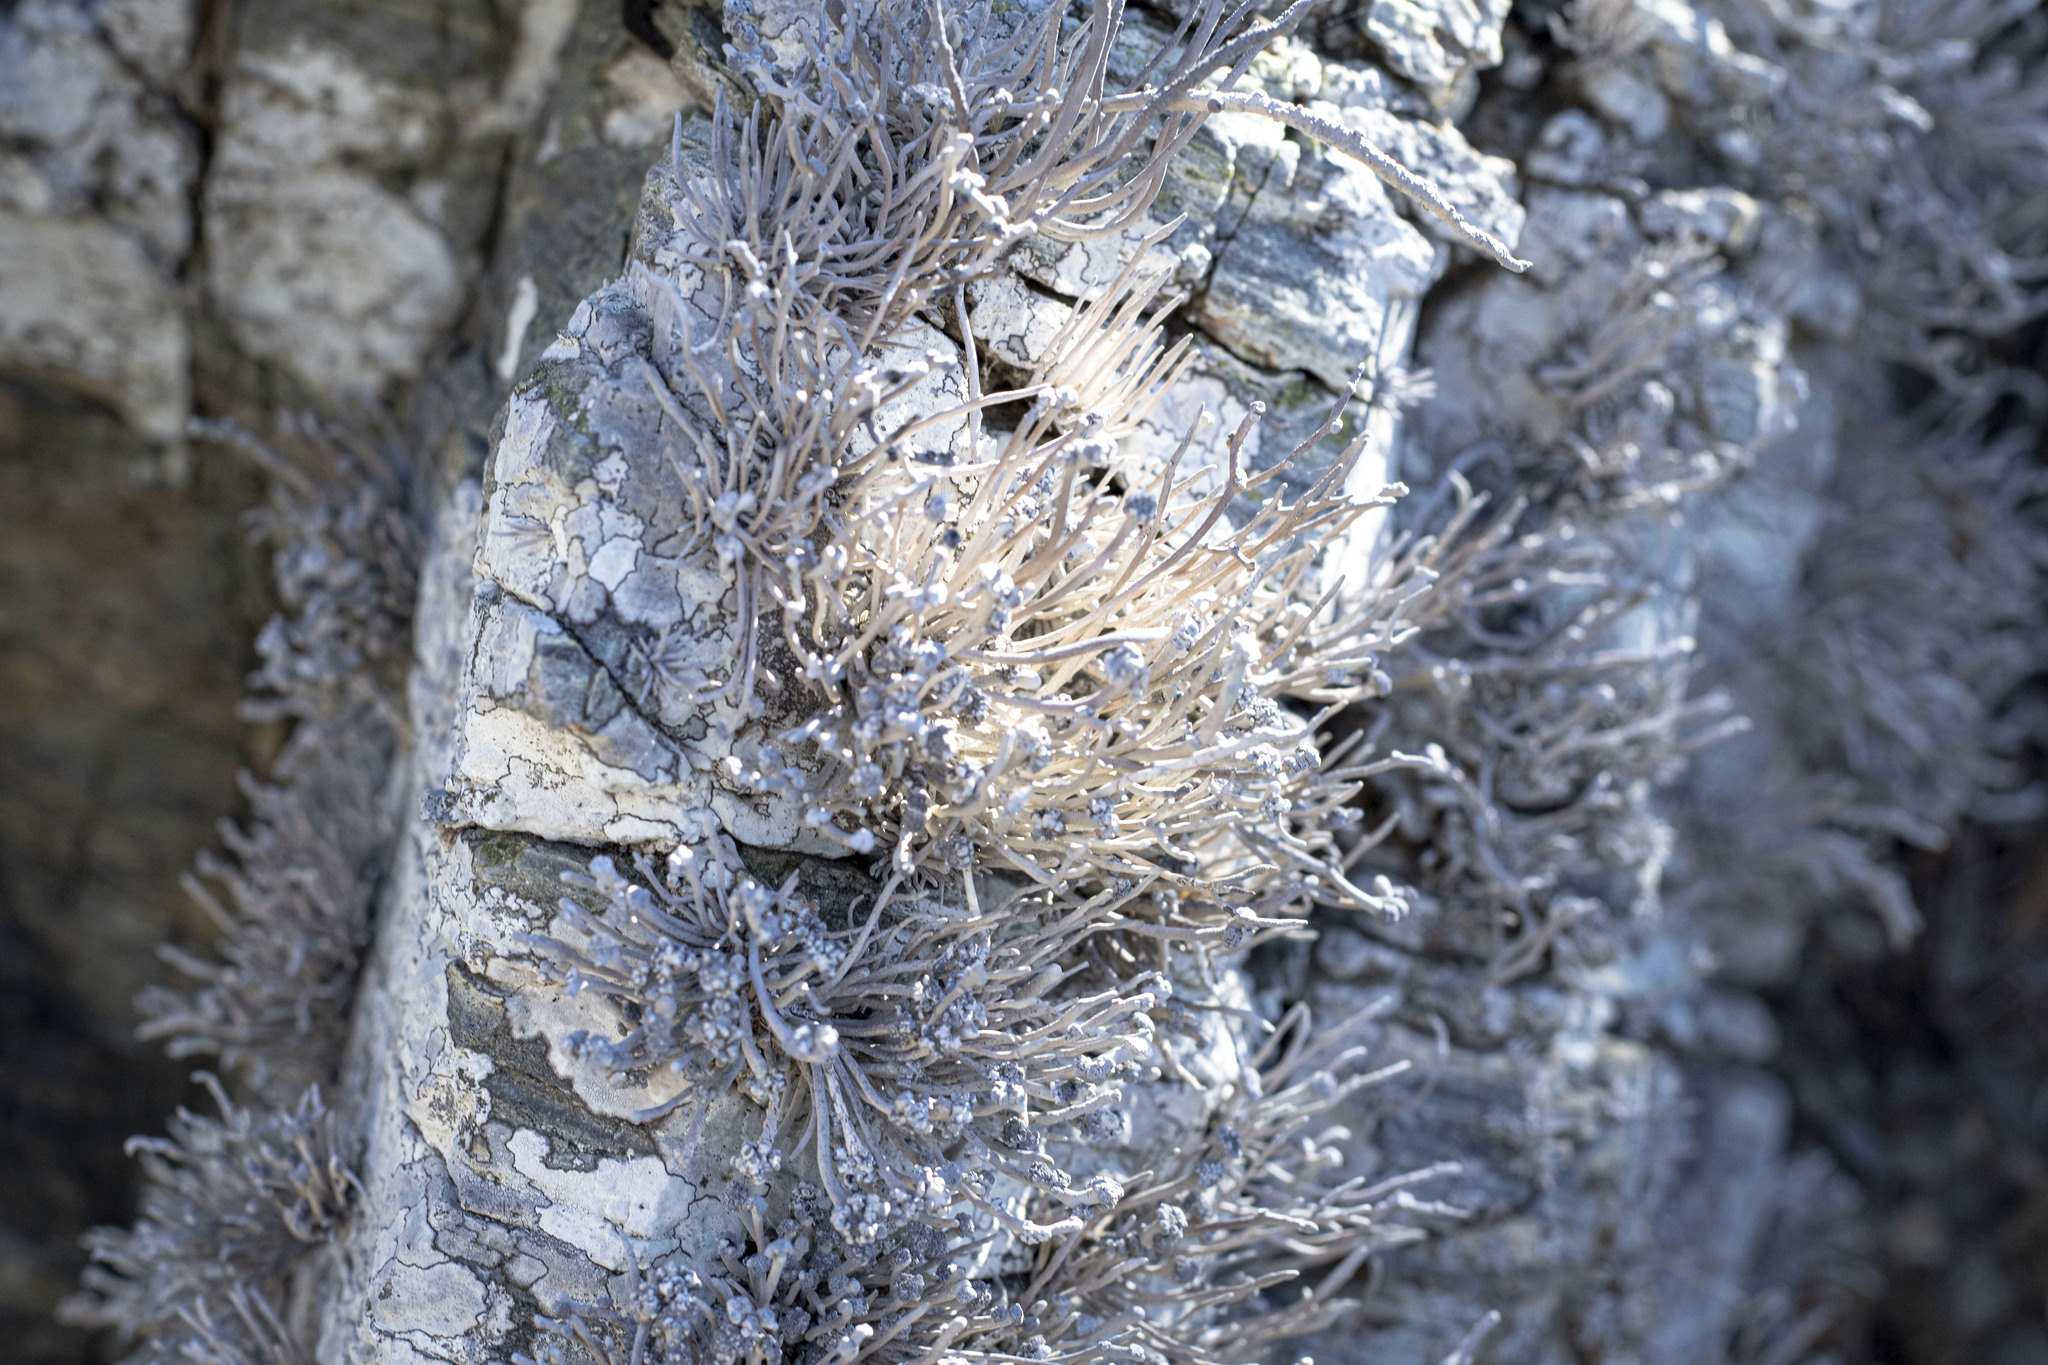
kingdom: Fungi
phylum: Ascomycota
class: Arthoniomycetes
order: Arthoniales
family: Roccellaceae
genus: Roccella
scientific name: Roccella bajasurensis
